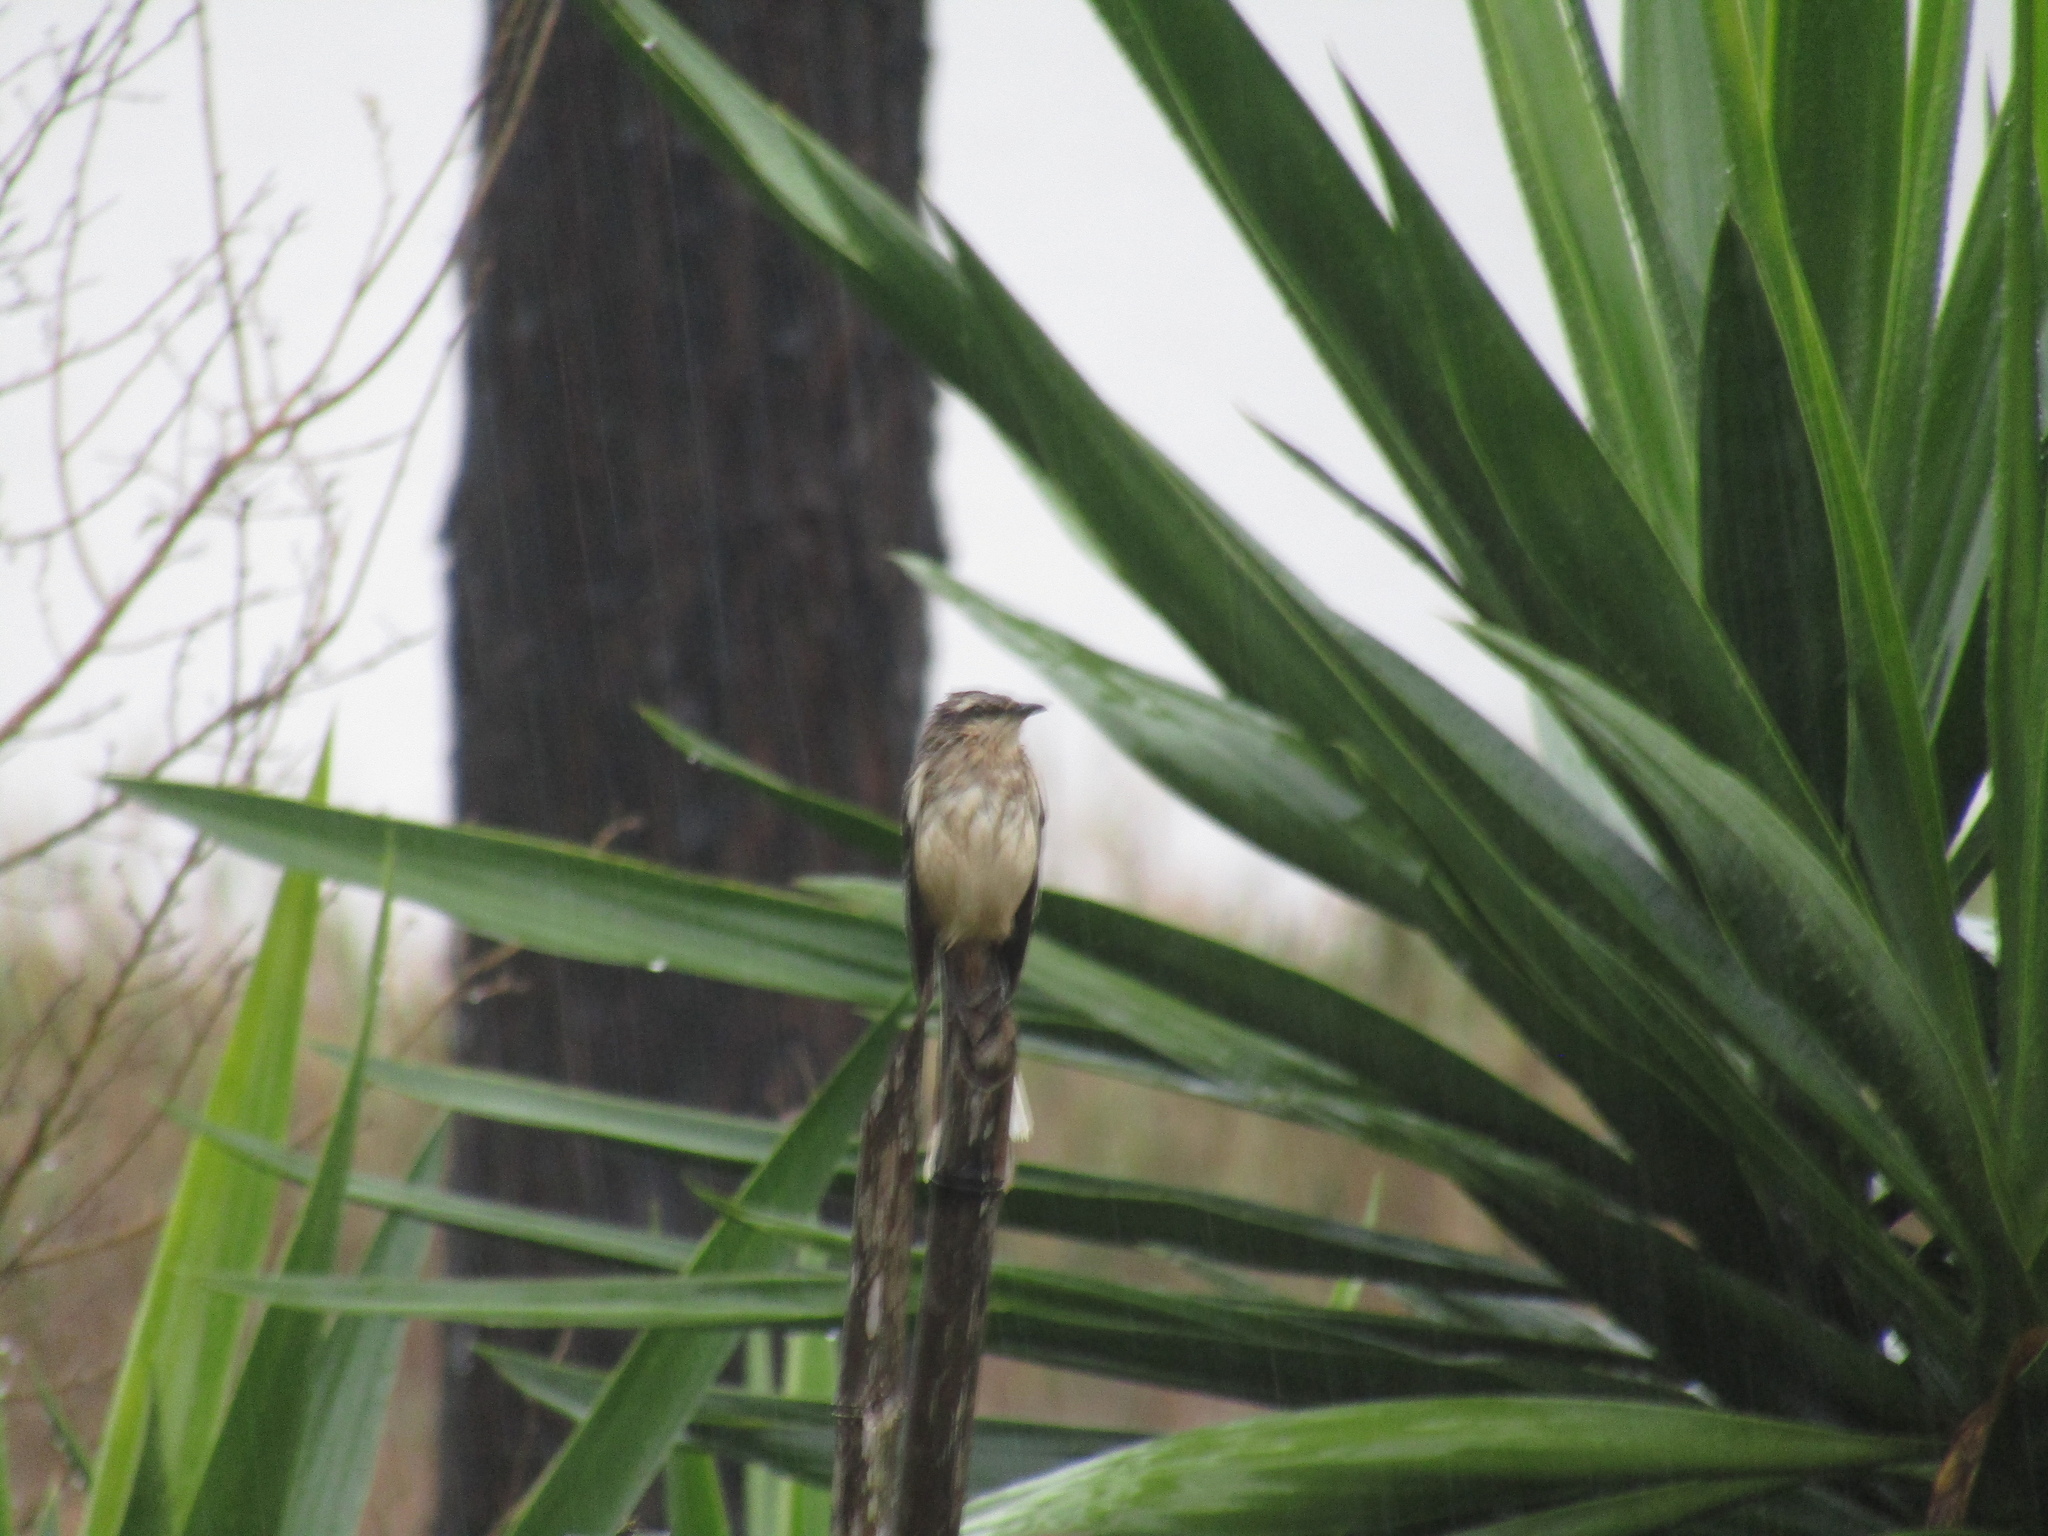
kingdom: Animalia
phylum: Chordata
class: Aves
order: Passeriformes
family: Mimidae
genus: Mimus
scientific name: Mimus saturninus
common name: Chalk-browed mockingbird
